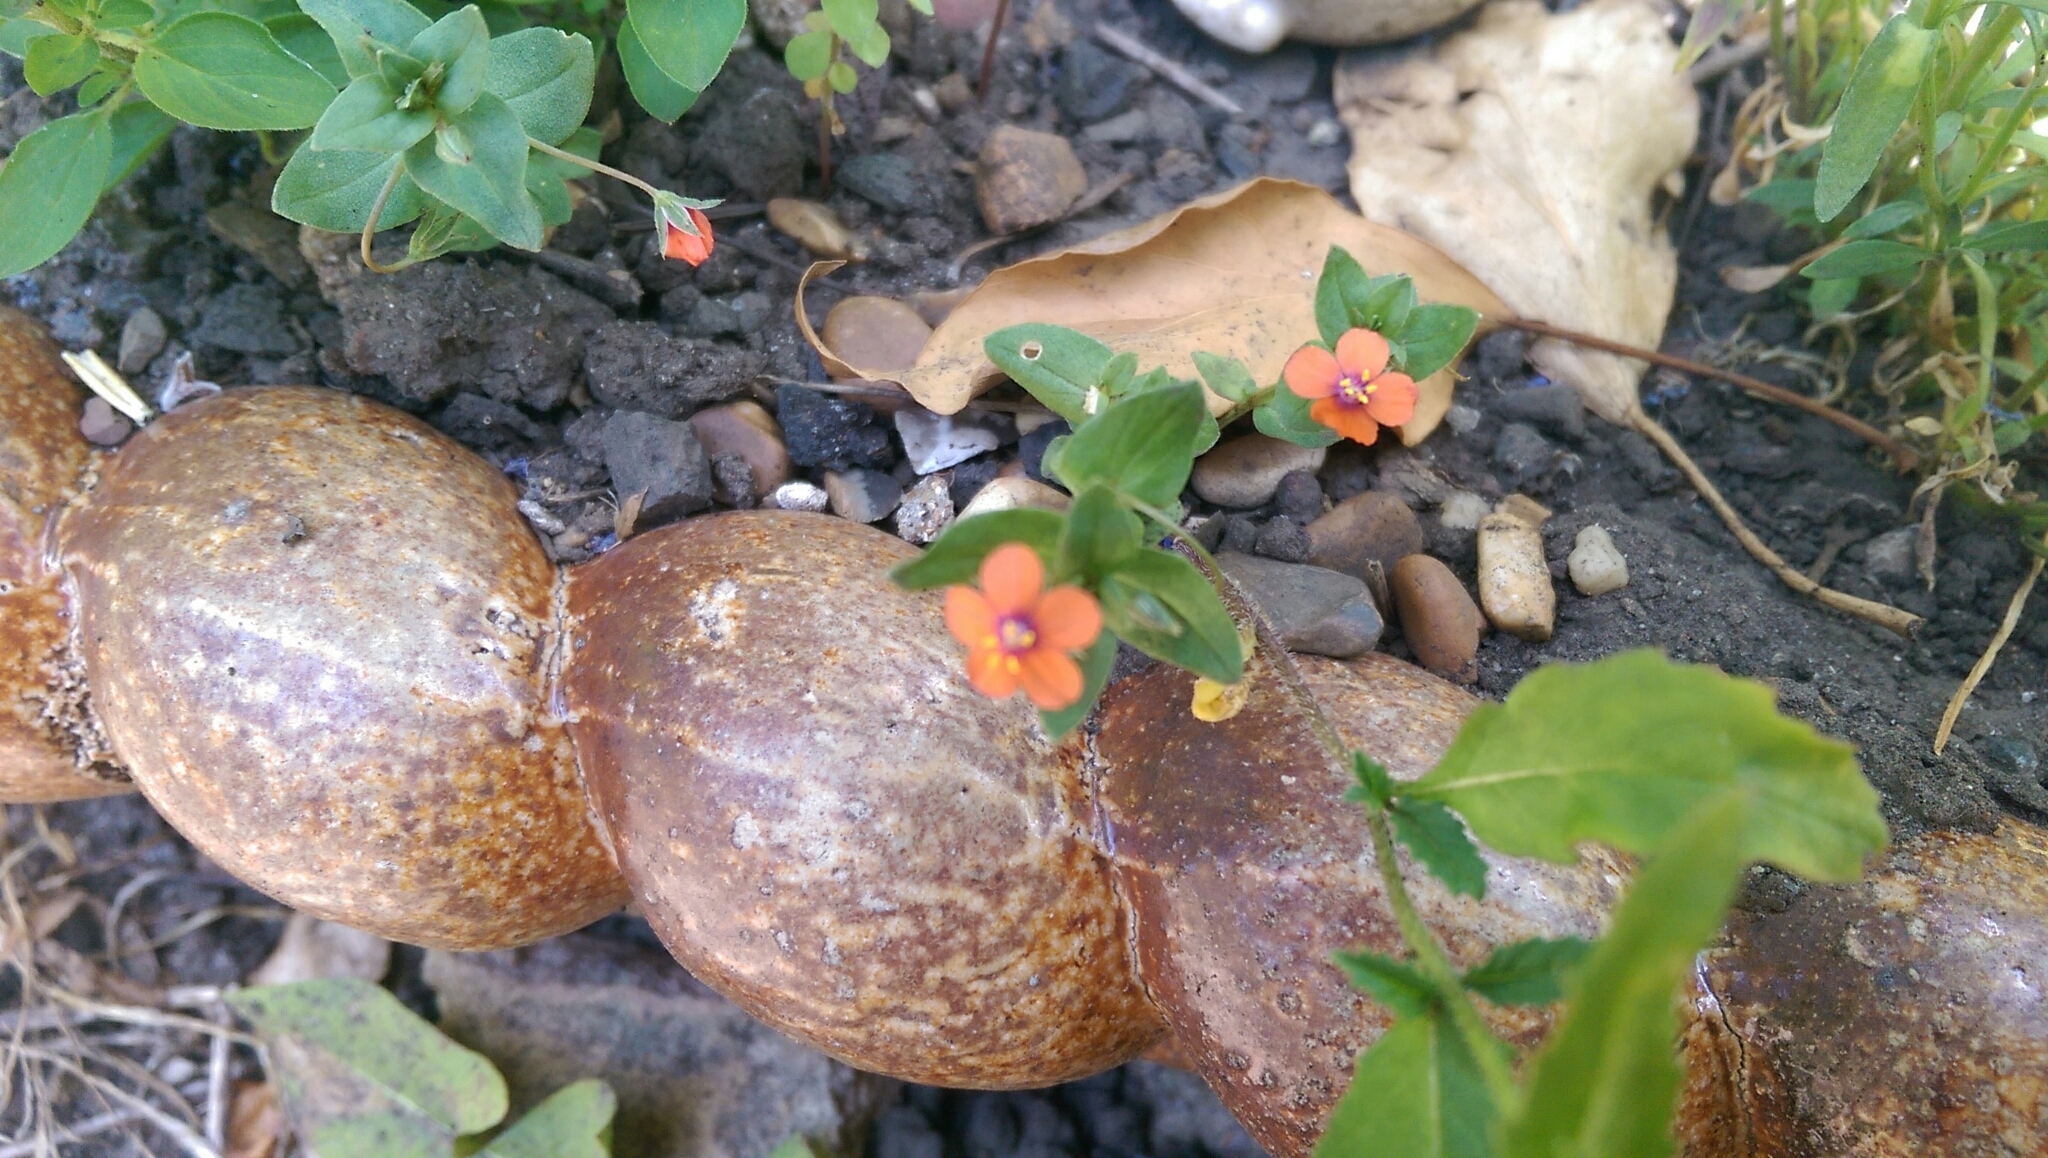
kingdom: Plantae
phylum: Tracheophyta
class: Magnoliopsida
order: Ericales
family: Primulaceae
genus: Lysimachia
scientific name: Lysimachia arvensis
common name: Scarlet pimpernel
